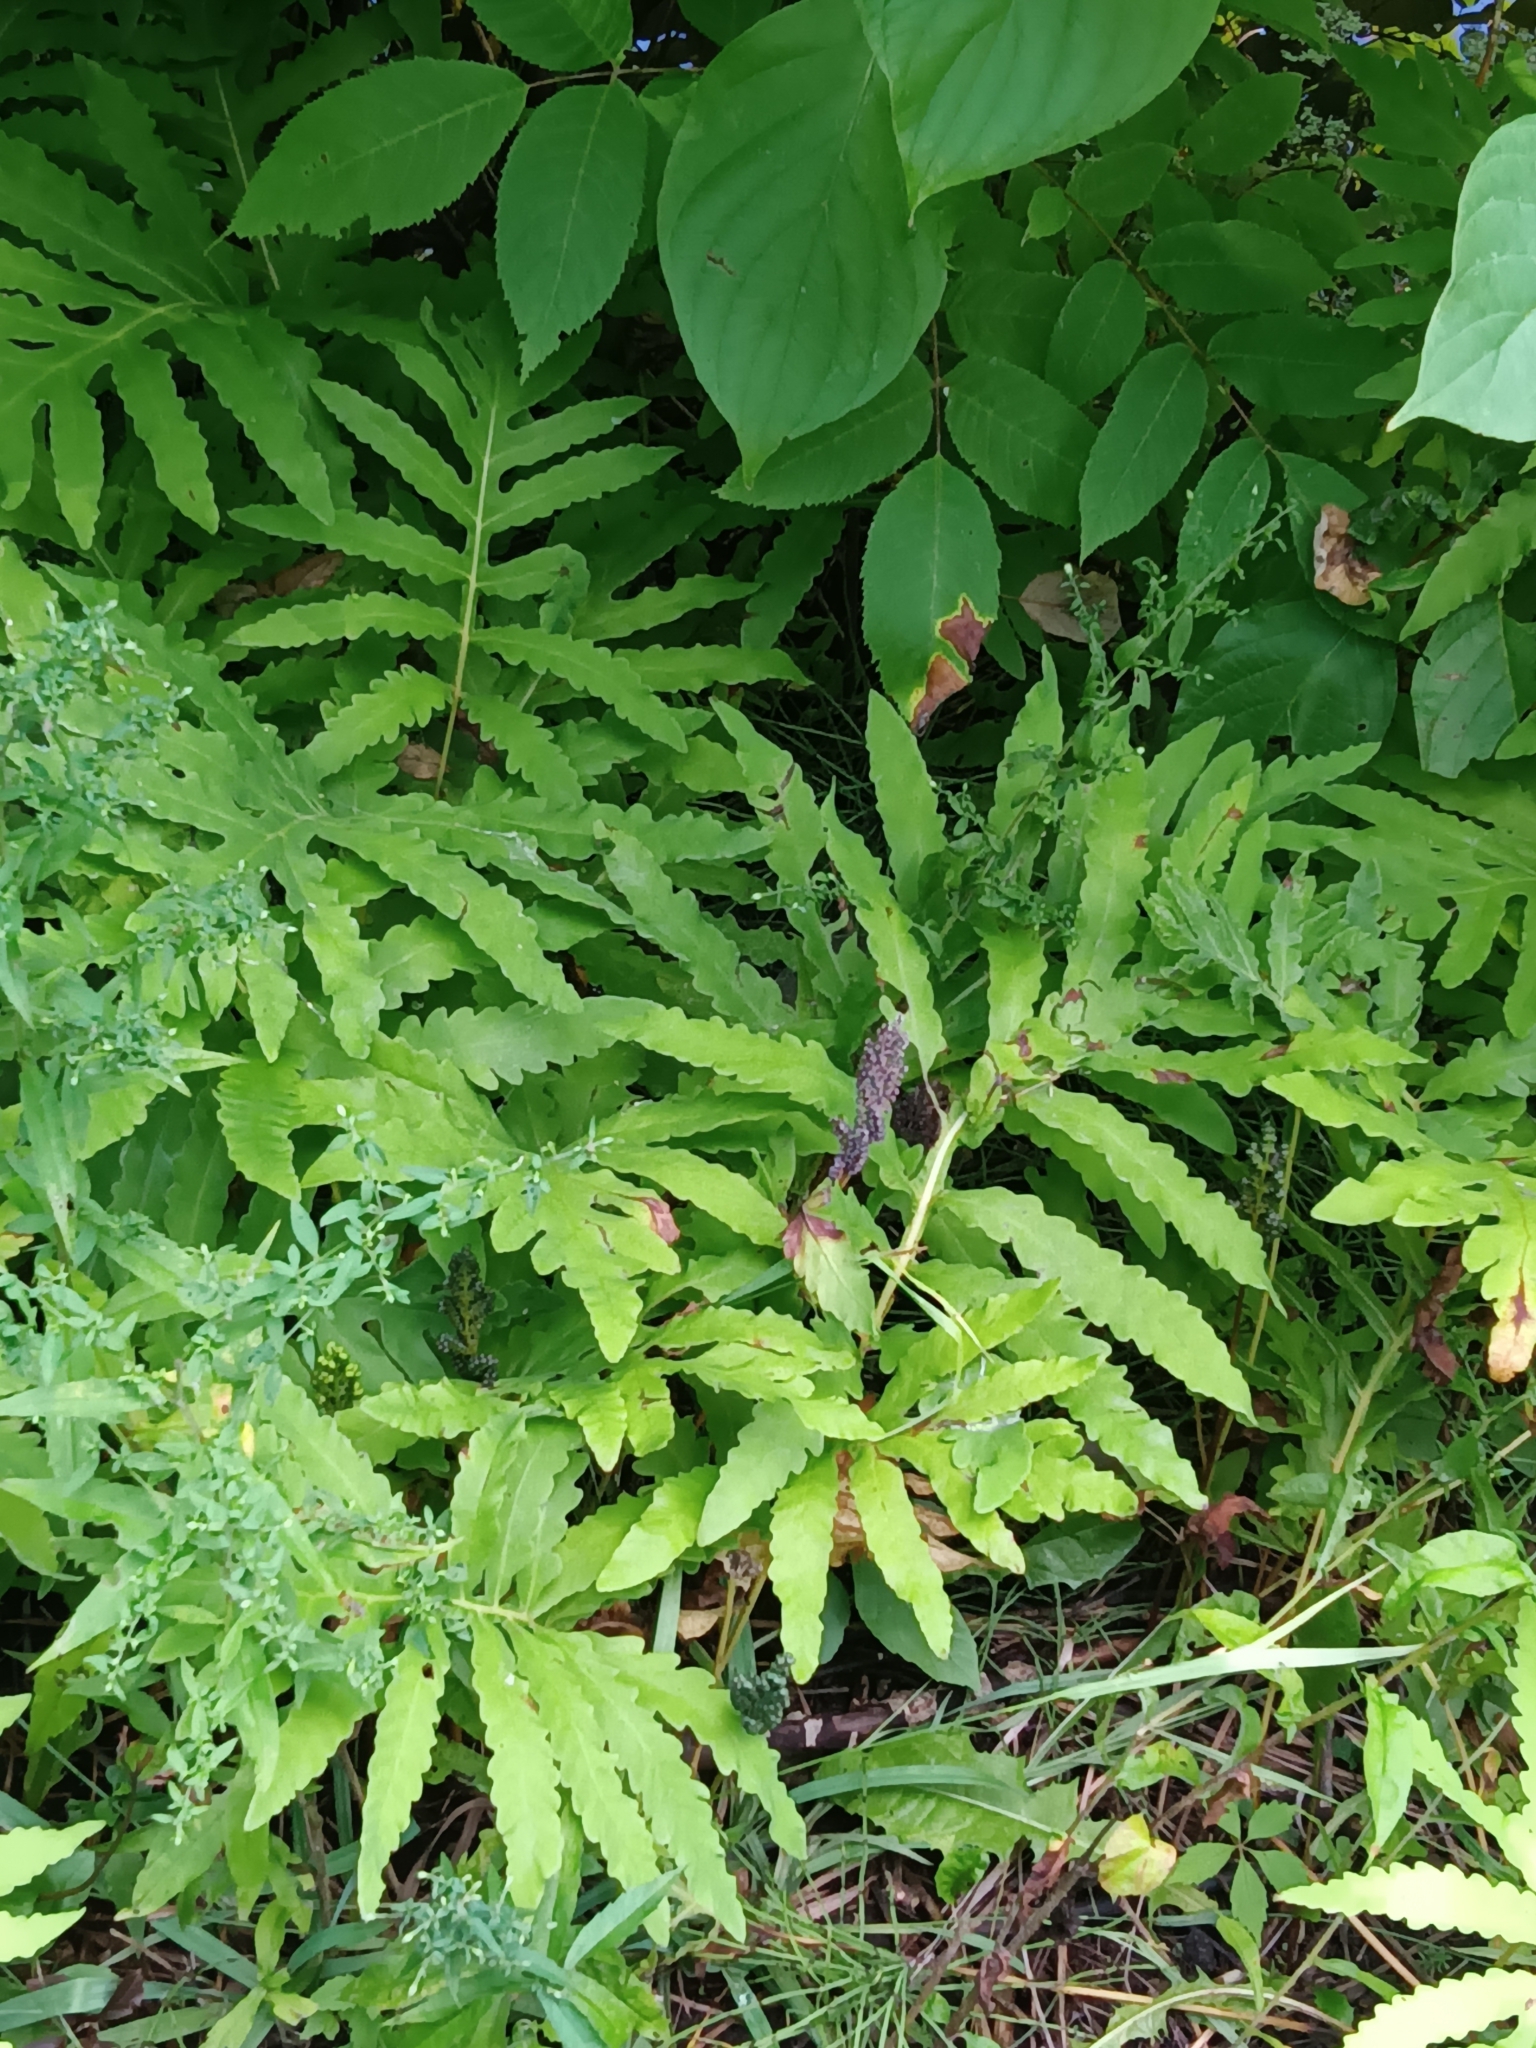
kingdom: Plantae
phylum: Tracheophyta
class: Polypodiopsida
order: Polypodiales
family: Onocleaceae
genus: Onoclea
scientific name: Onoclea sensibilis
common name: Sensitive fern
